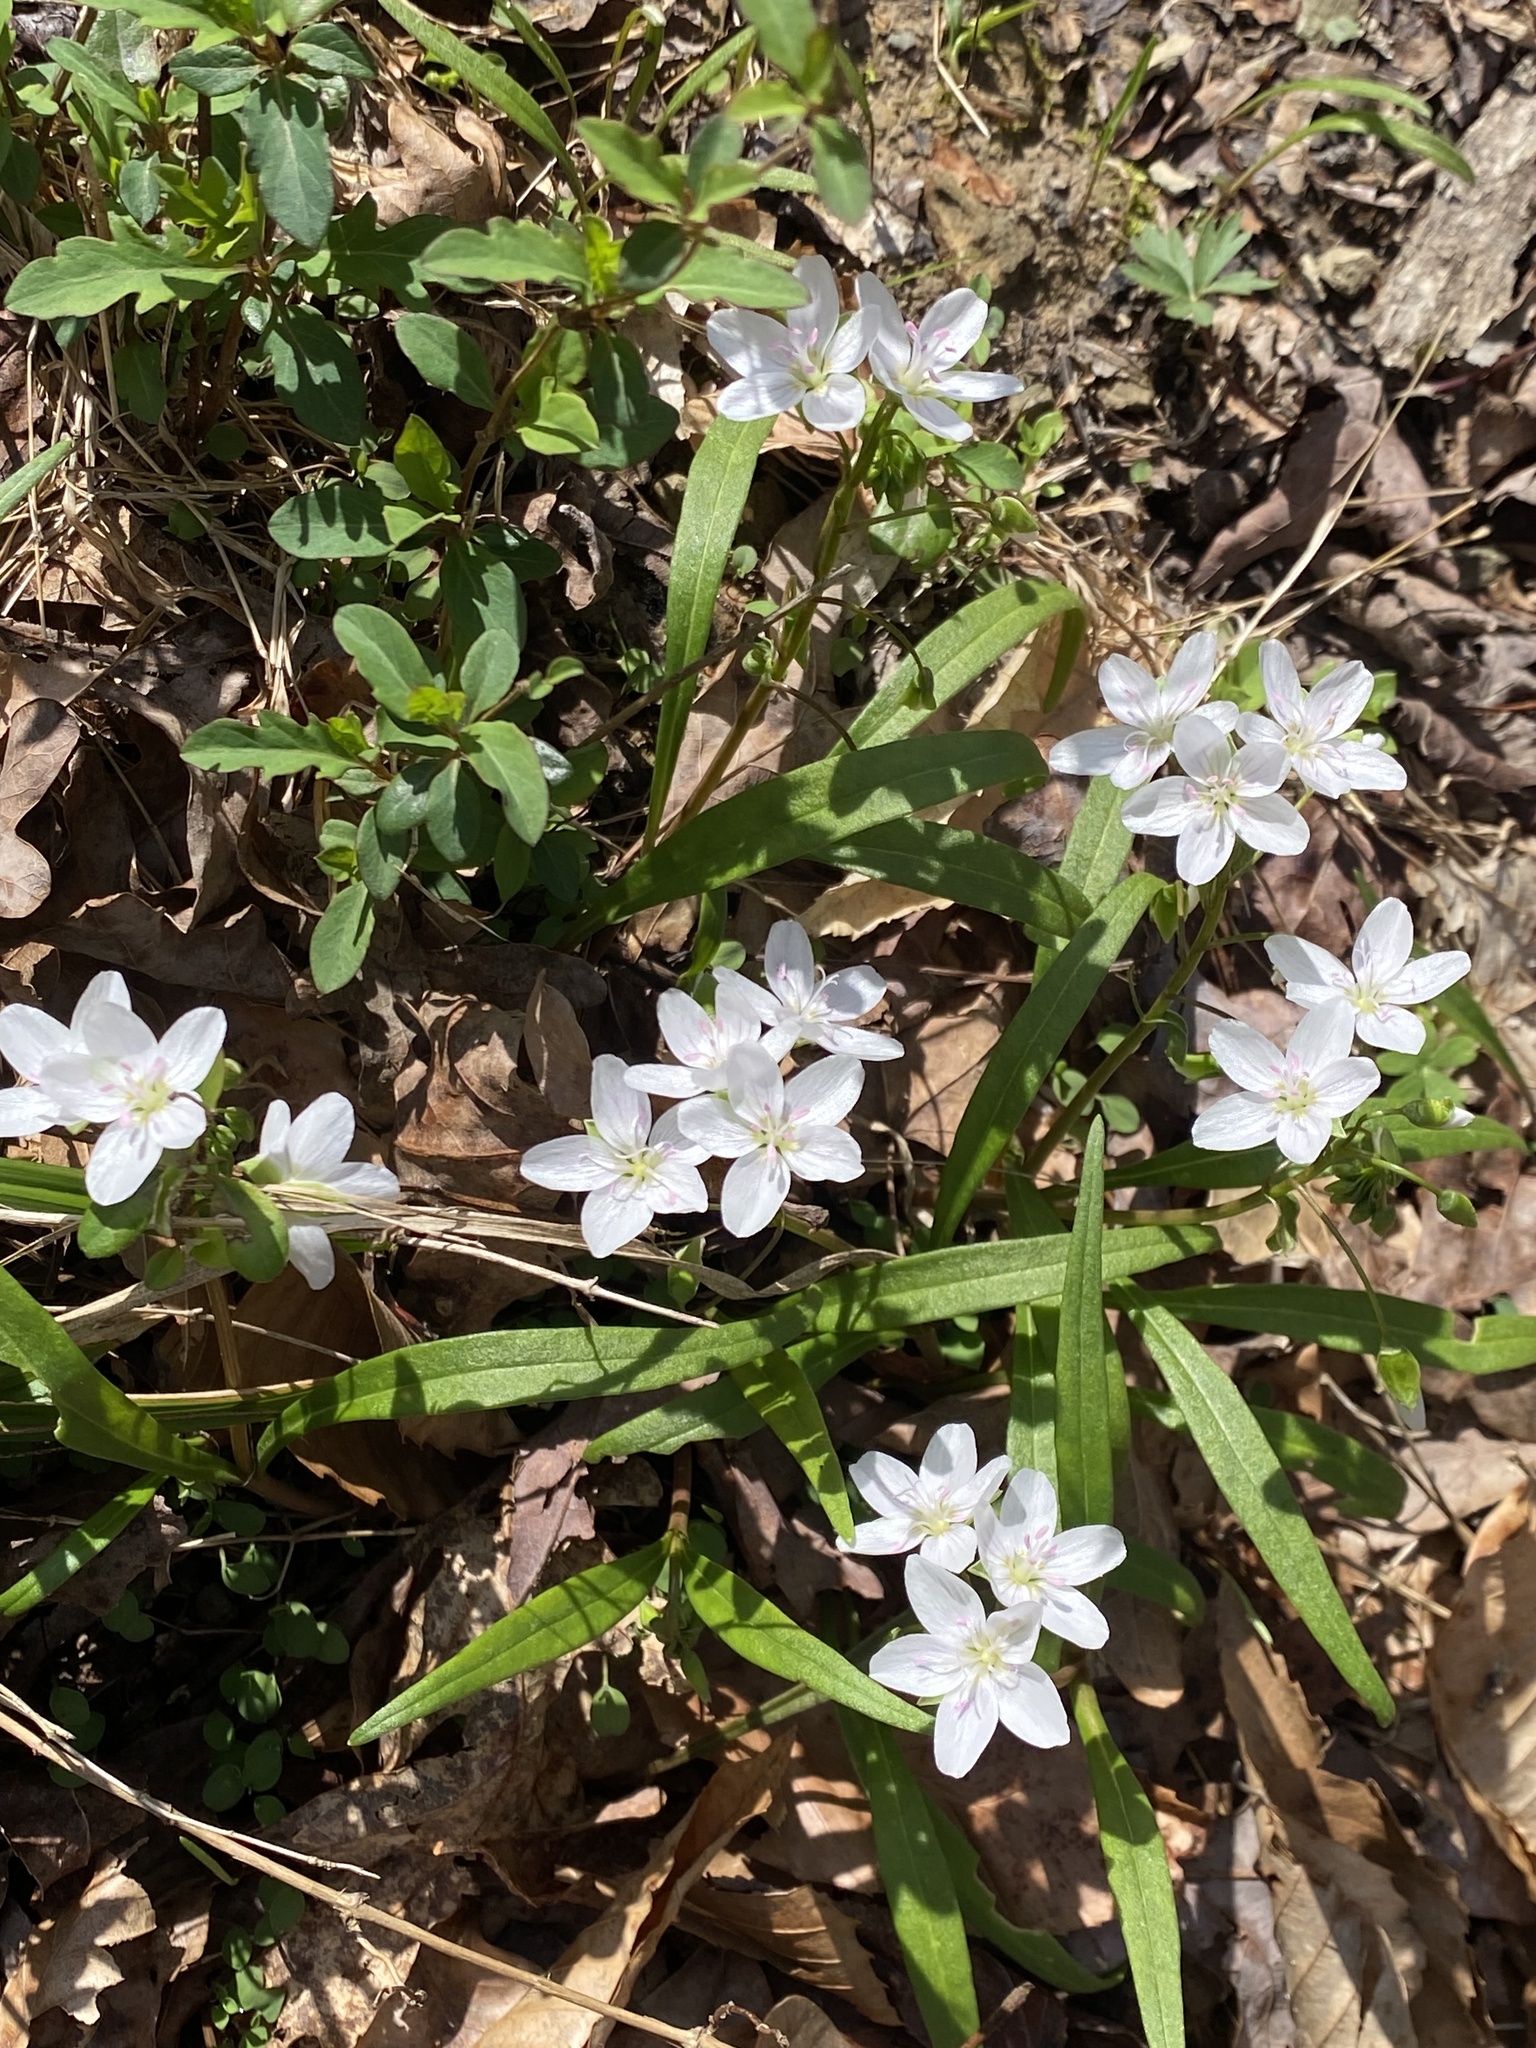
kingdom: Plantae
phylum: Tracheophyta
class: Magnoliopsida
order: Caryophyllales
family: Montiaceae
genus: Claytonia
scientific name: Claytonia virginica
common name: Virginia springbeauty
